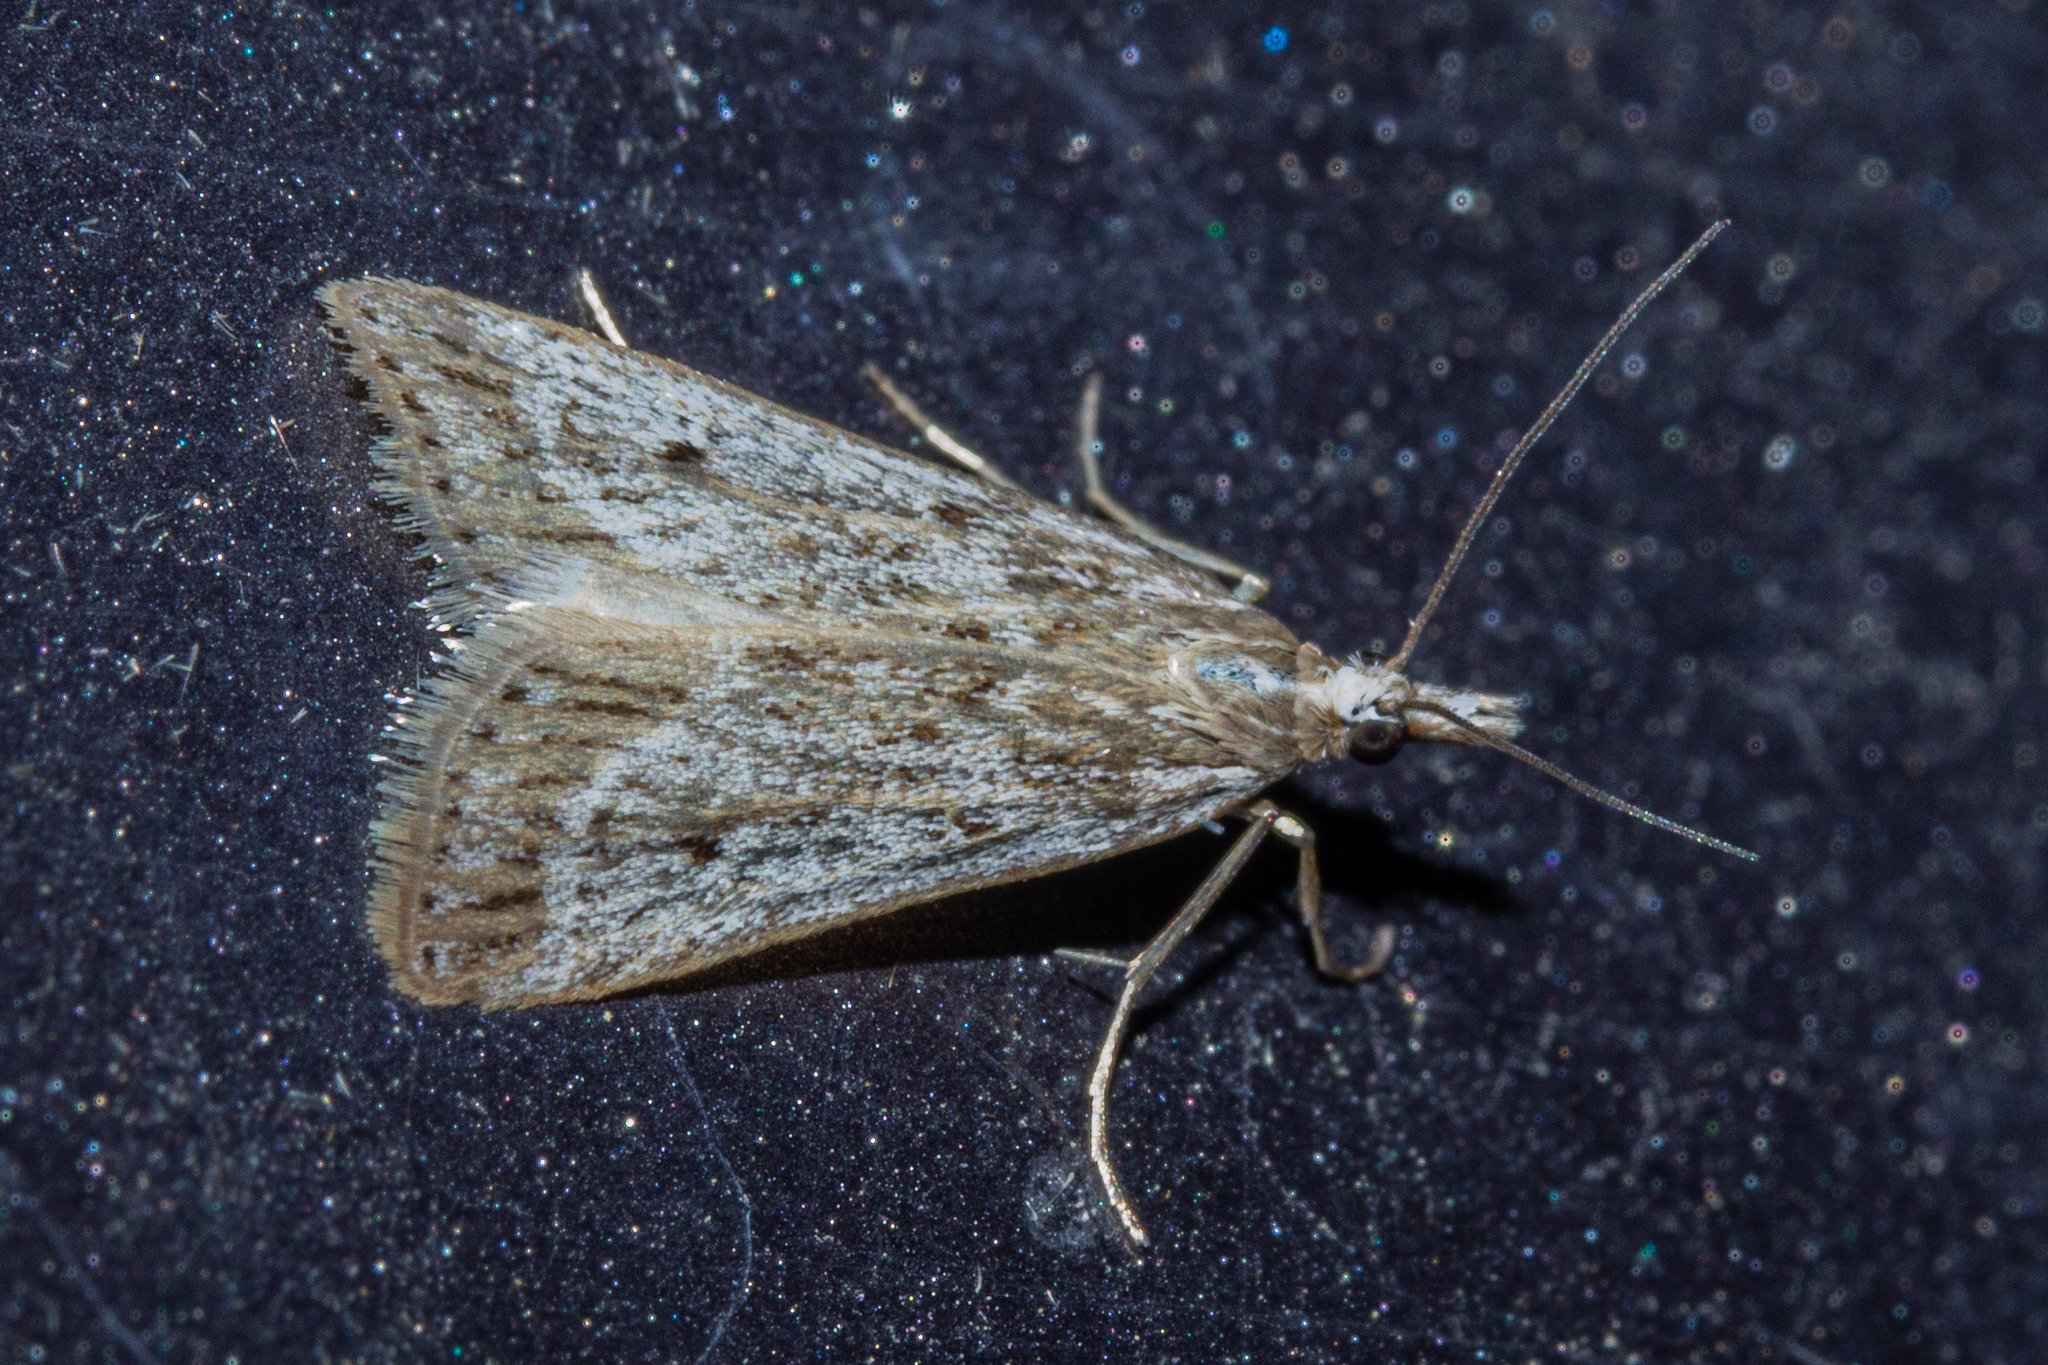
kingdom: Animalia
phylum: Arthropoda
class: Insecta
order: Lepidoptera
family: Crambidae
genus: Eudonia
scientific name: Eudonia deltophora
